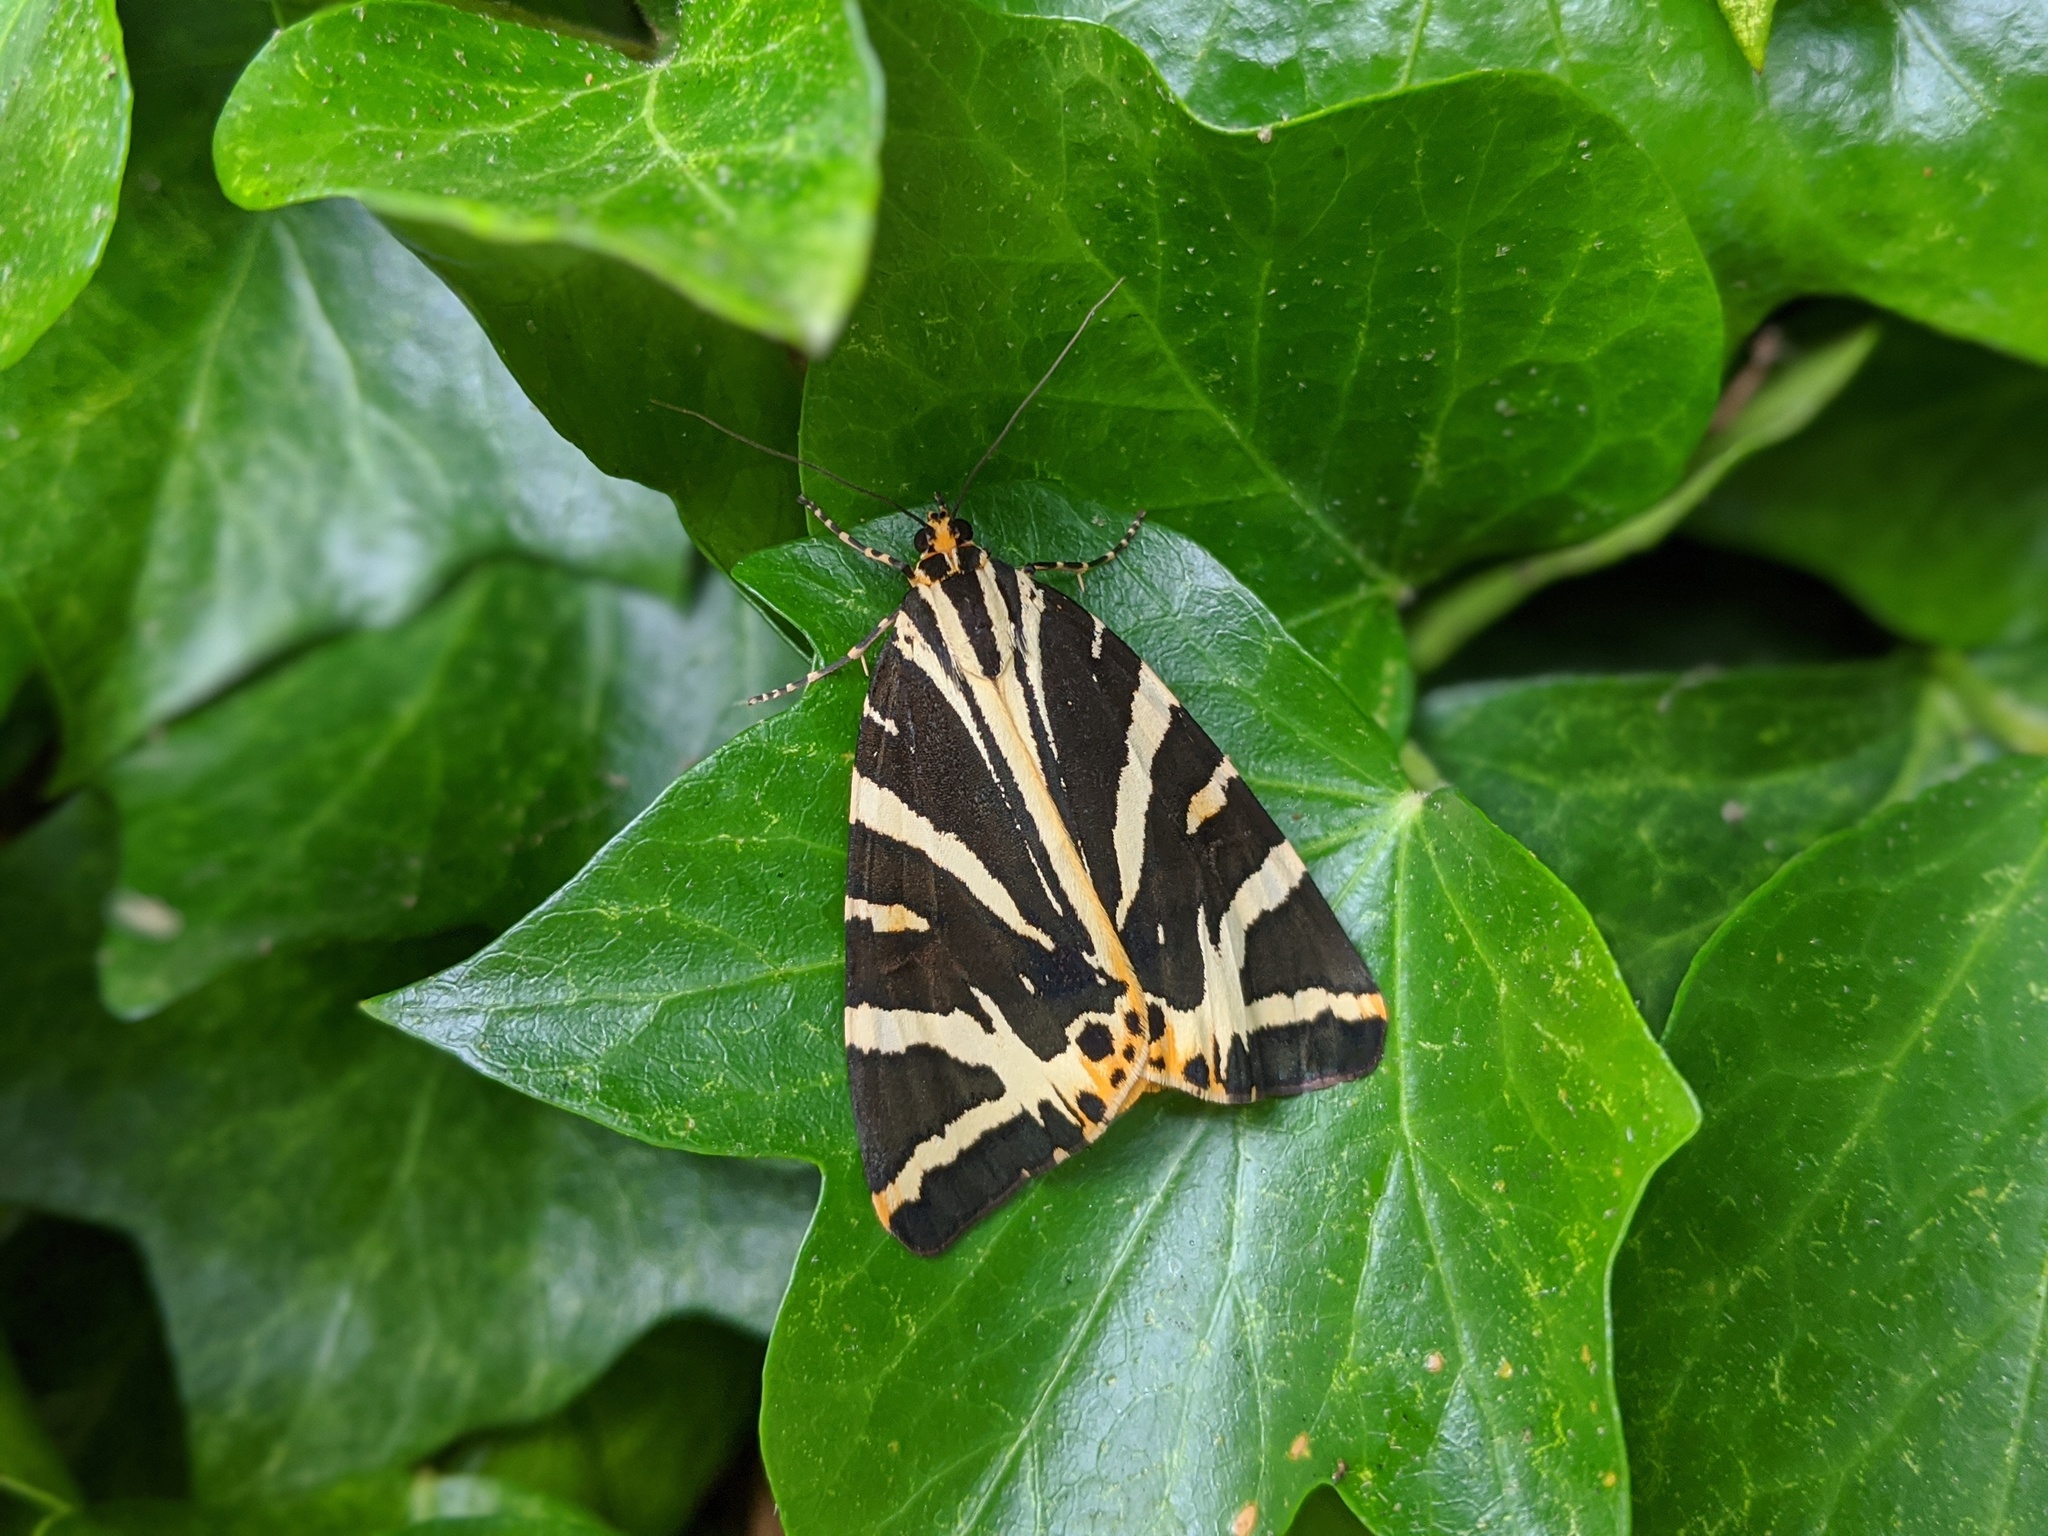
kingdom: Animalia
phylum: Arthropoda
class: Insecta
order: Lepidoptera
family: Erebidae
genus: Euplagia
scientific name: Euplagia quadripunctaria
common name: Jersey tiger
